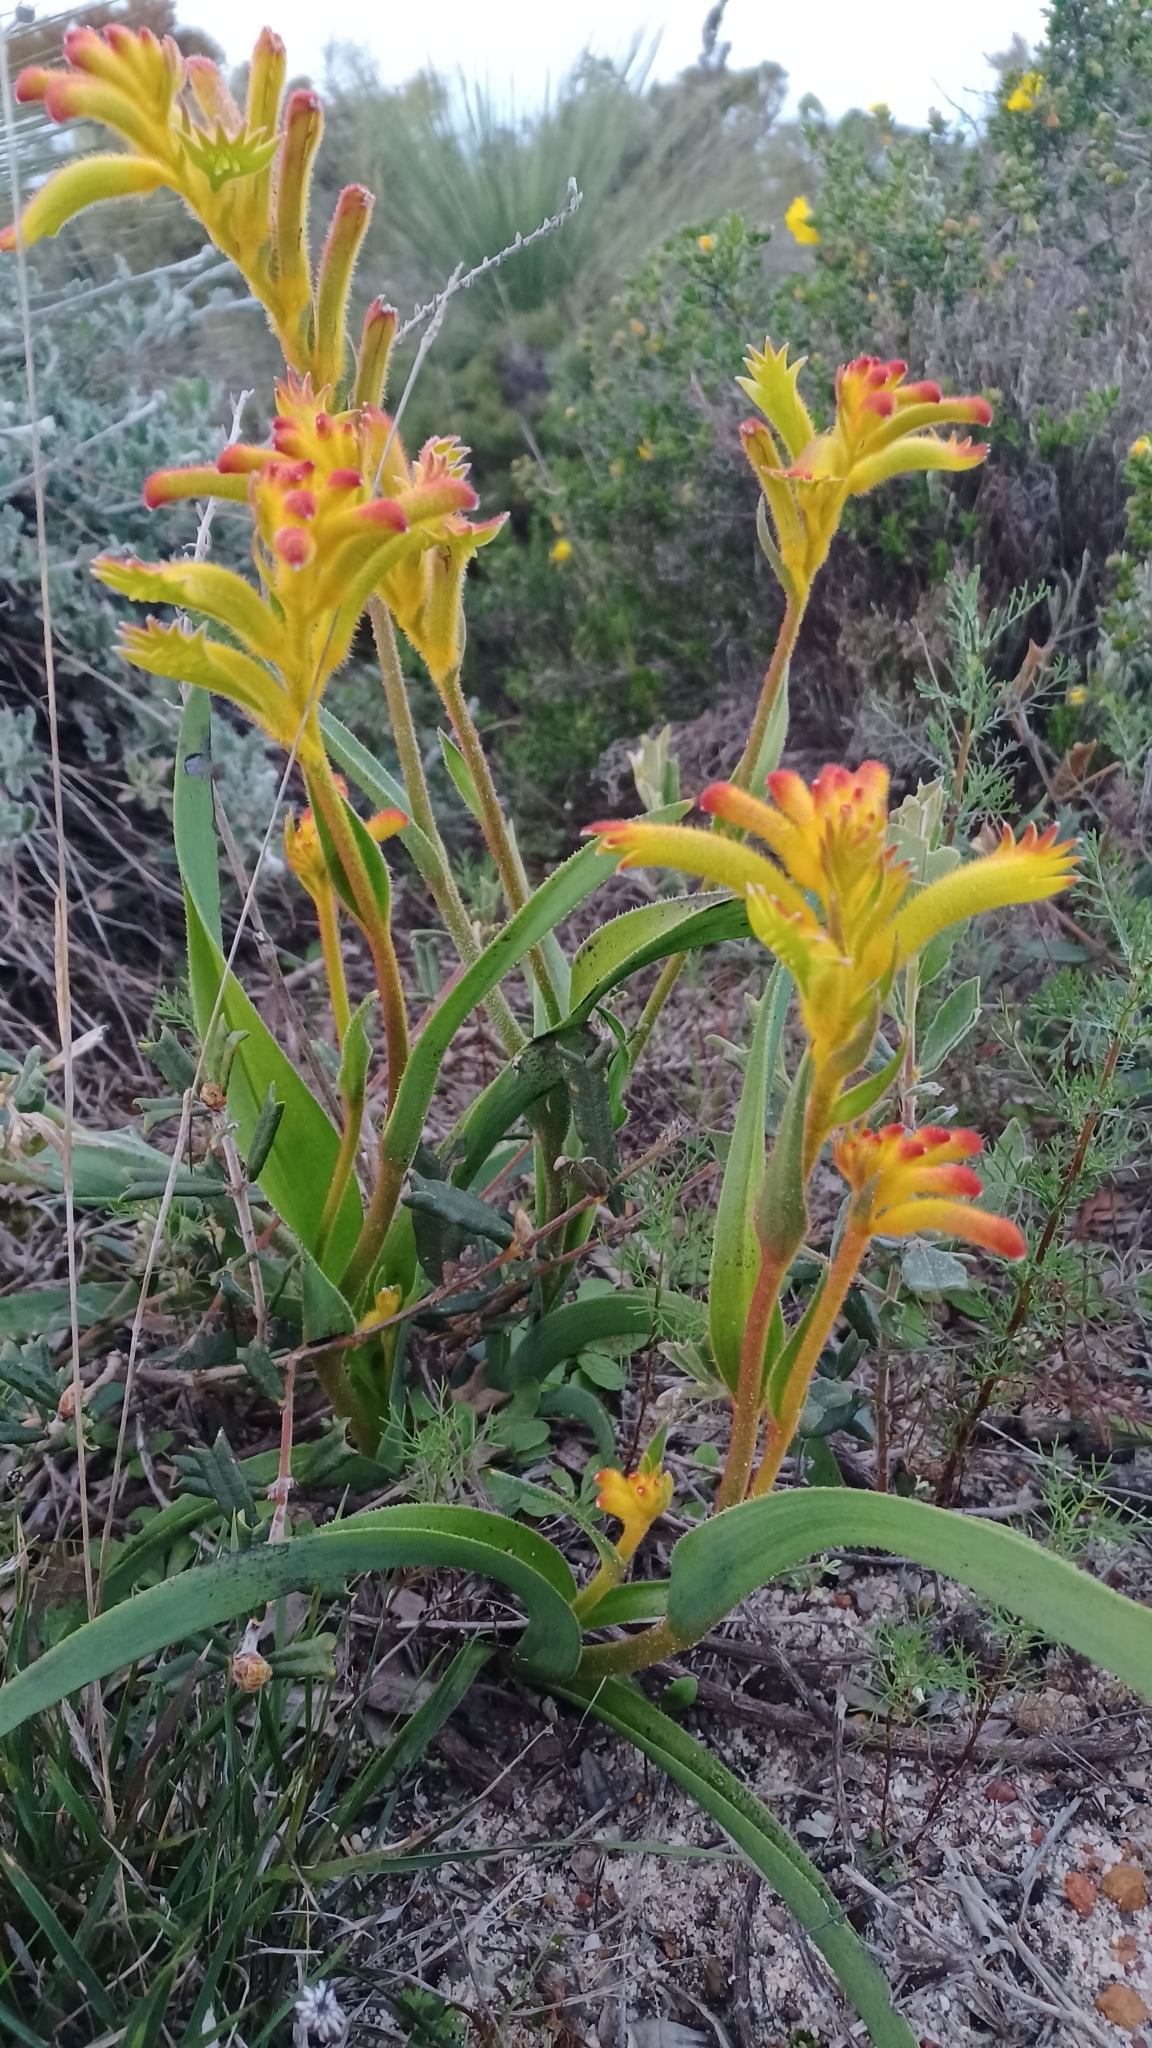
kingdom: Plantae
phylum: Tracheophyta
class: Liliopsida
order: Commelinales
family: Haemodoraceae
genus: Anigozanthos
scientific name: Anigozanthos humilis
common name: Cat's-paw
